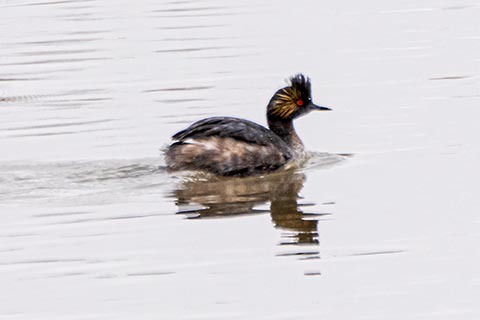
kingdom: Animalia
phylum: Chordata
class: Aves
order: Podicipediformes
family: Podicipedidae
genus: Podiceps
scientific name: Podiceps nigricollis
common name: Black-necked grebe
